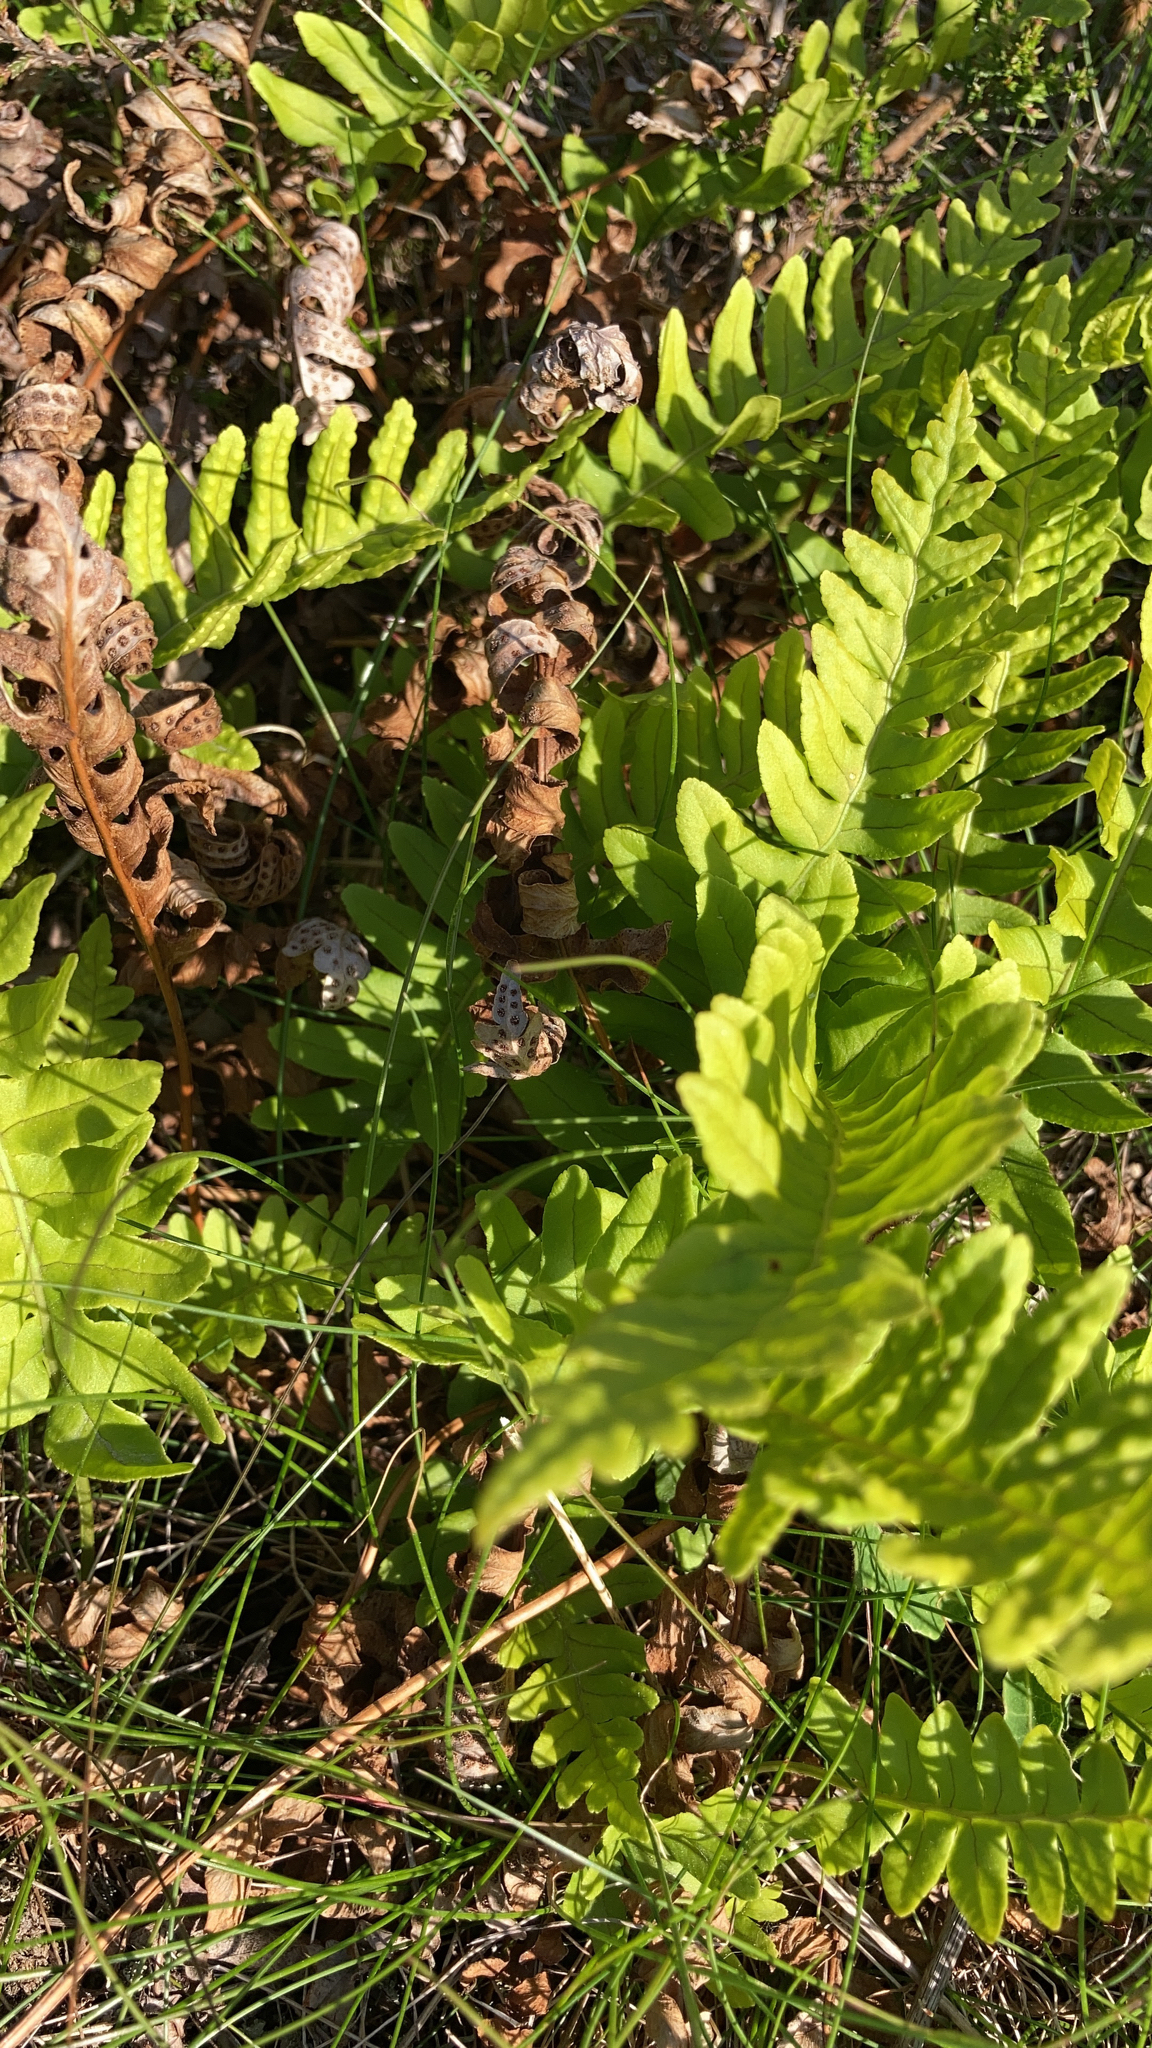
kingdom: Plantae
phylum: Tracheophyta
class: Polypodiopsida
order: Polypodiales
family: Polypodiaceae
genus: Polypodium
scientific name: Polypodium vulgare
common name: Common polypody
